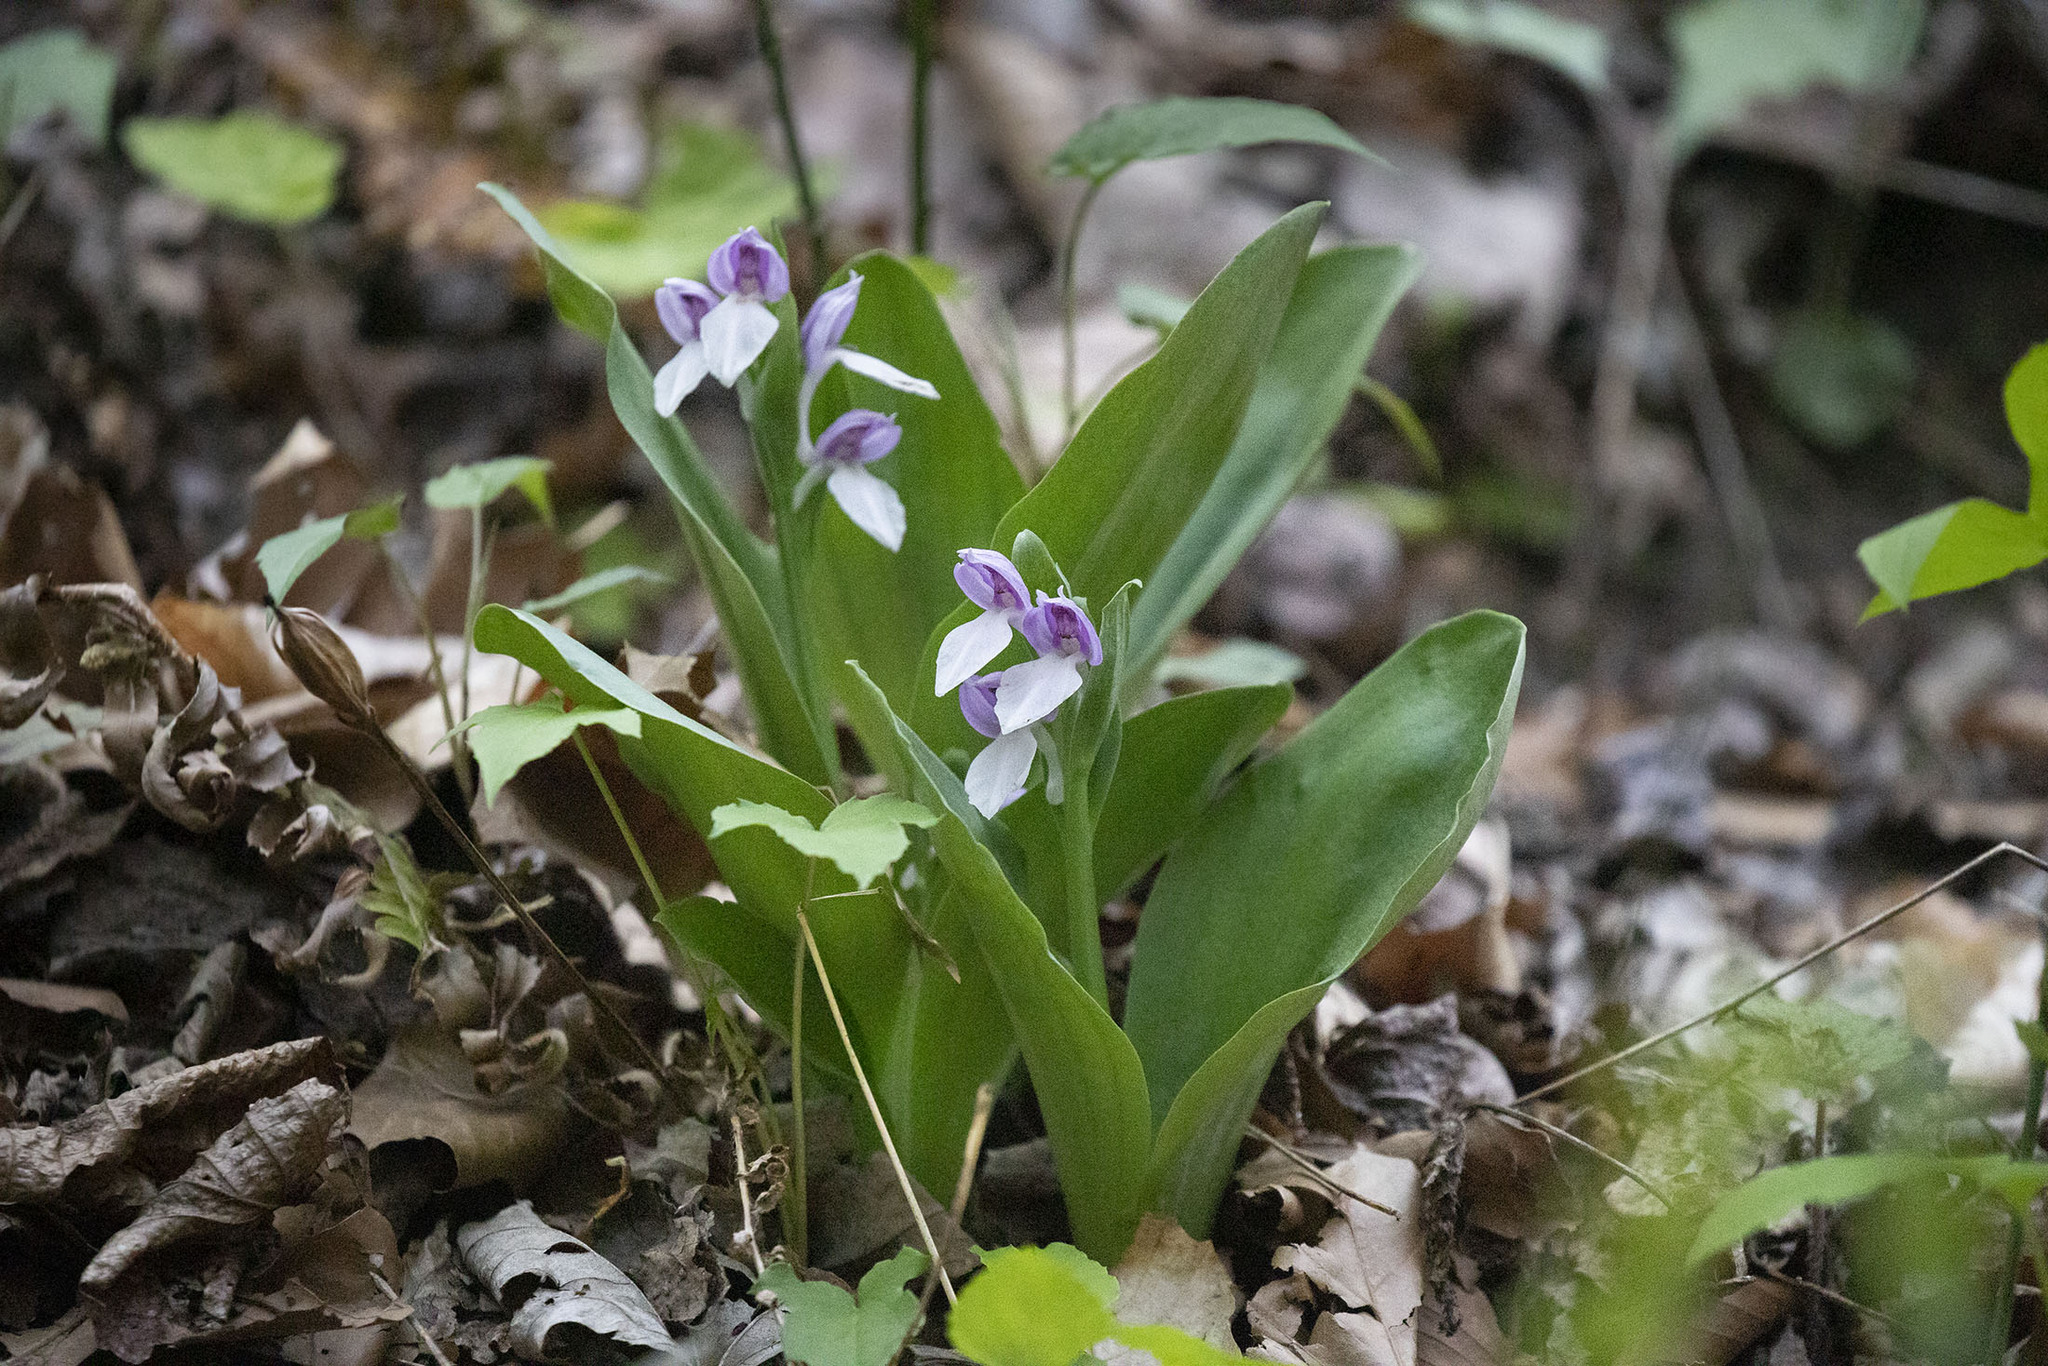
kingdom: Plantae
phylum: Tracheophyta
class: Liliopsida
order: Asparagales
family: Orchidaceae
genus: Galearis
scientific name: Galearis spectabilis
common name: Purple-hooded orchis
